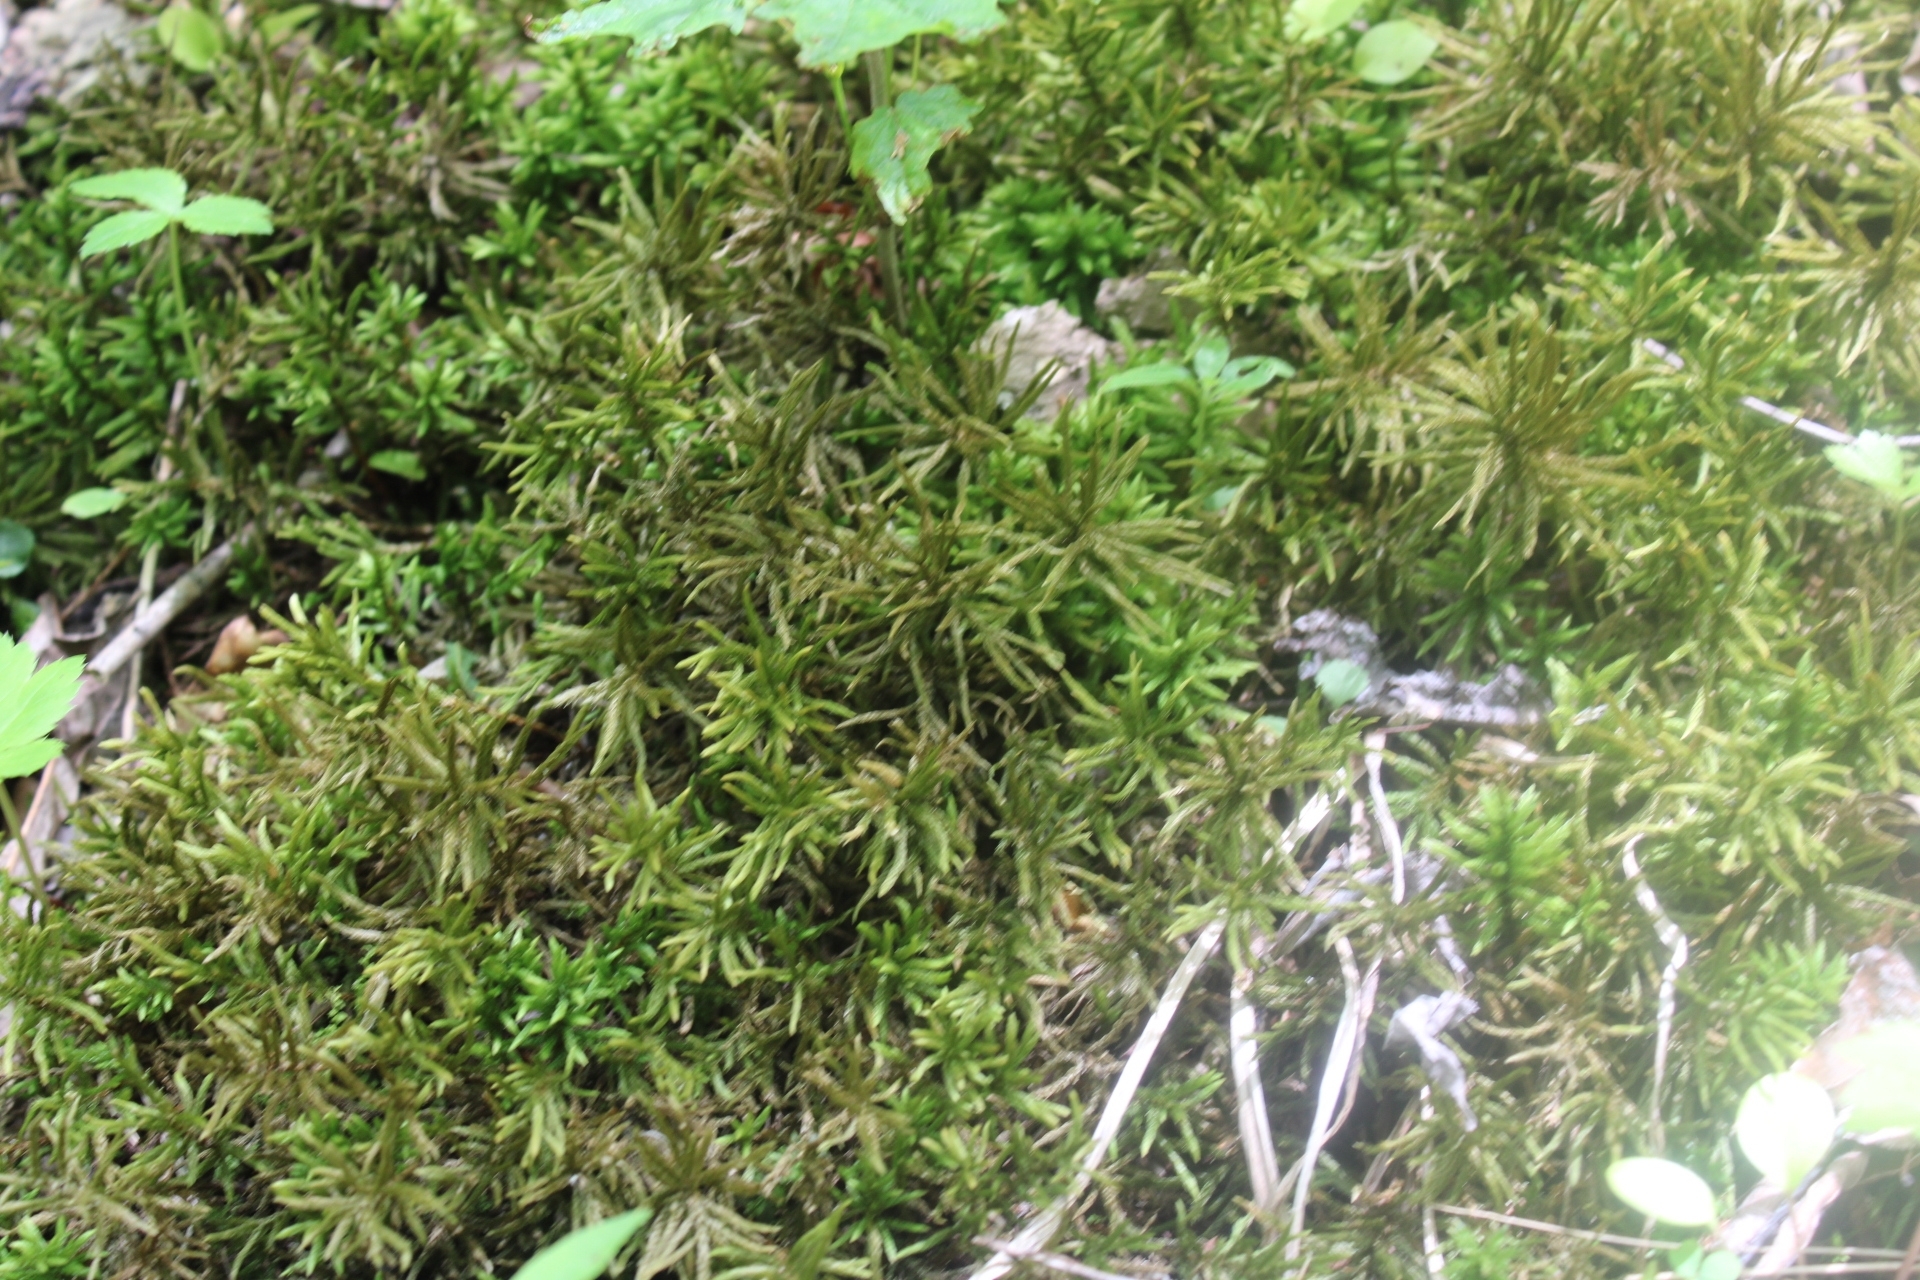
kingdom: Plantae
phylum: Bryophyta
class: Bryopsida
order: Hypnales
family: Climaciaceae
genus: Climacium
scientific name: Climacium americanum
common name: American tree moss
